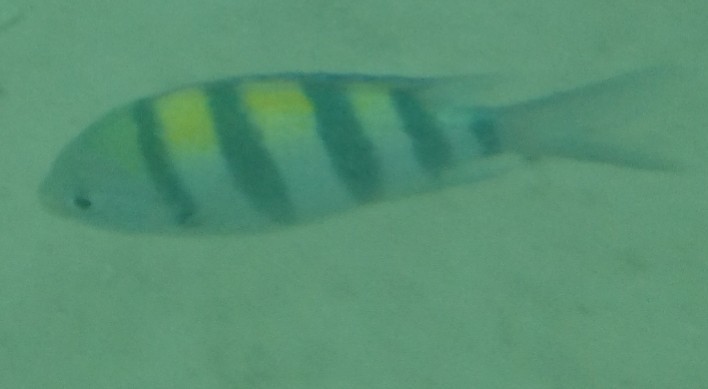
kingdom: Animalia
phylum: Chordata
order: Perciformes
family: Pomacentridae
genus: Abudefduf
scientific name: Abudefduf vaigiensis
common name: Indo-pacific sergeant
